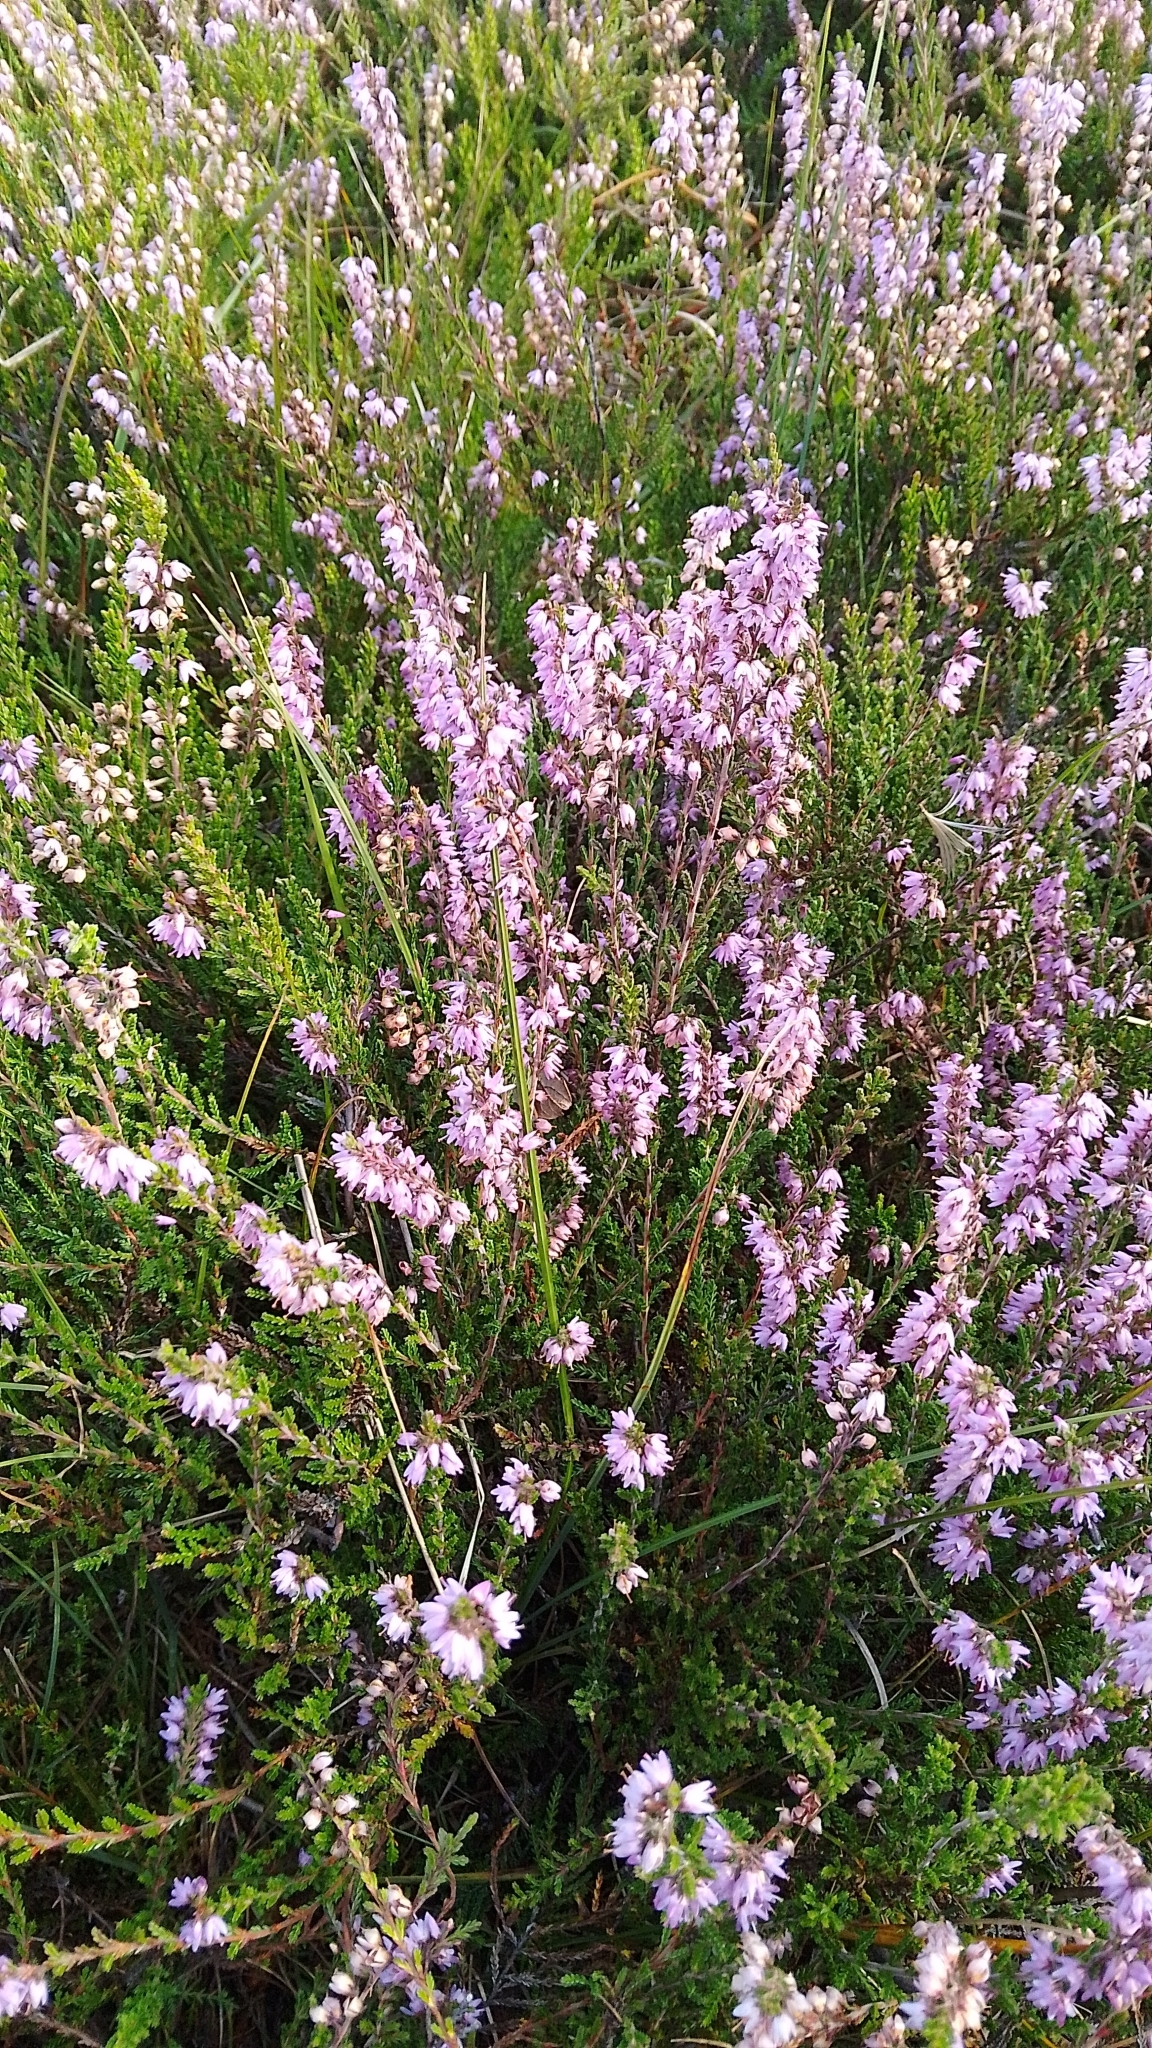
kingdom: Plantae
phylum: Tracheophyta
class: Magnoliopsida
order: Ericales
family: Ericaceae
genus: Calluna
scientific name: Calluna vulgaris
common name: Heather
